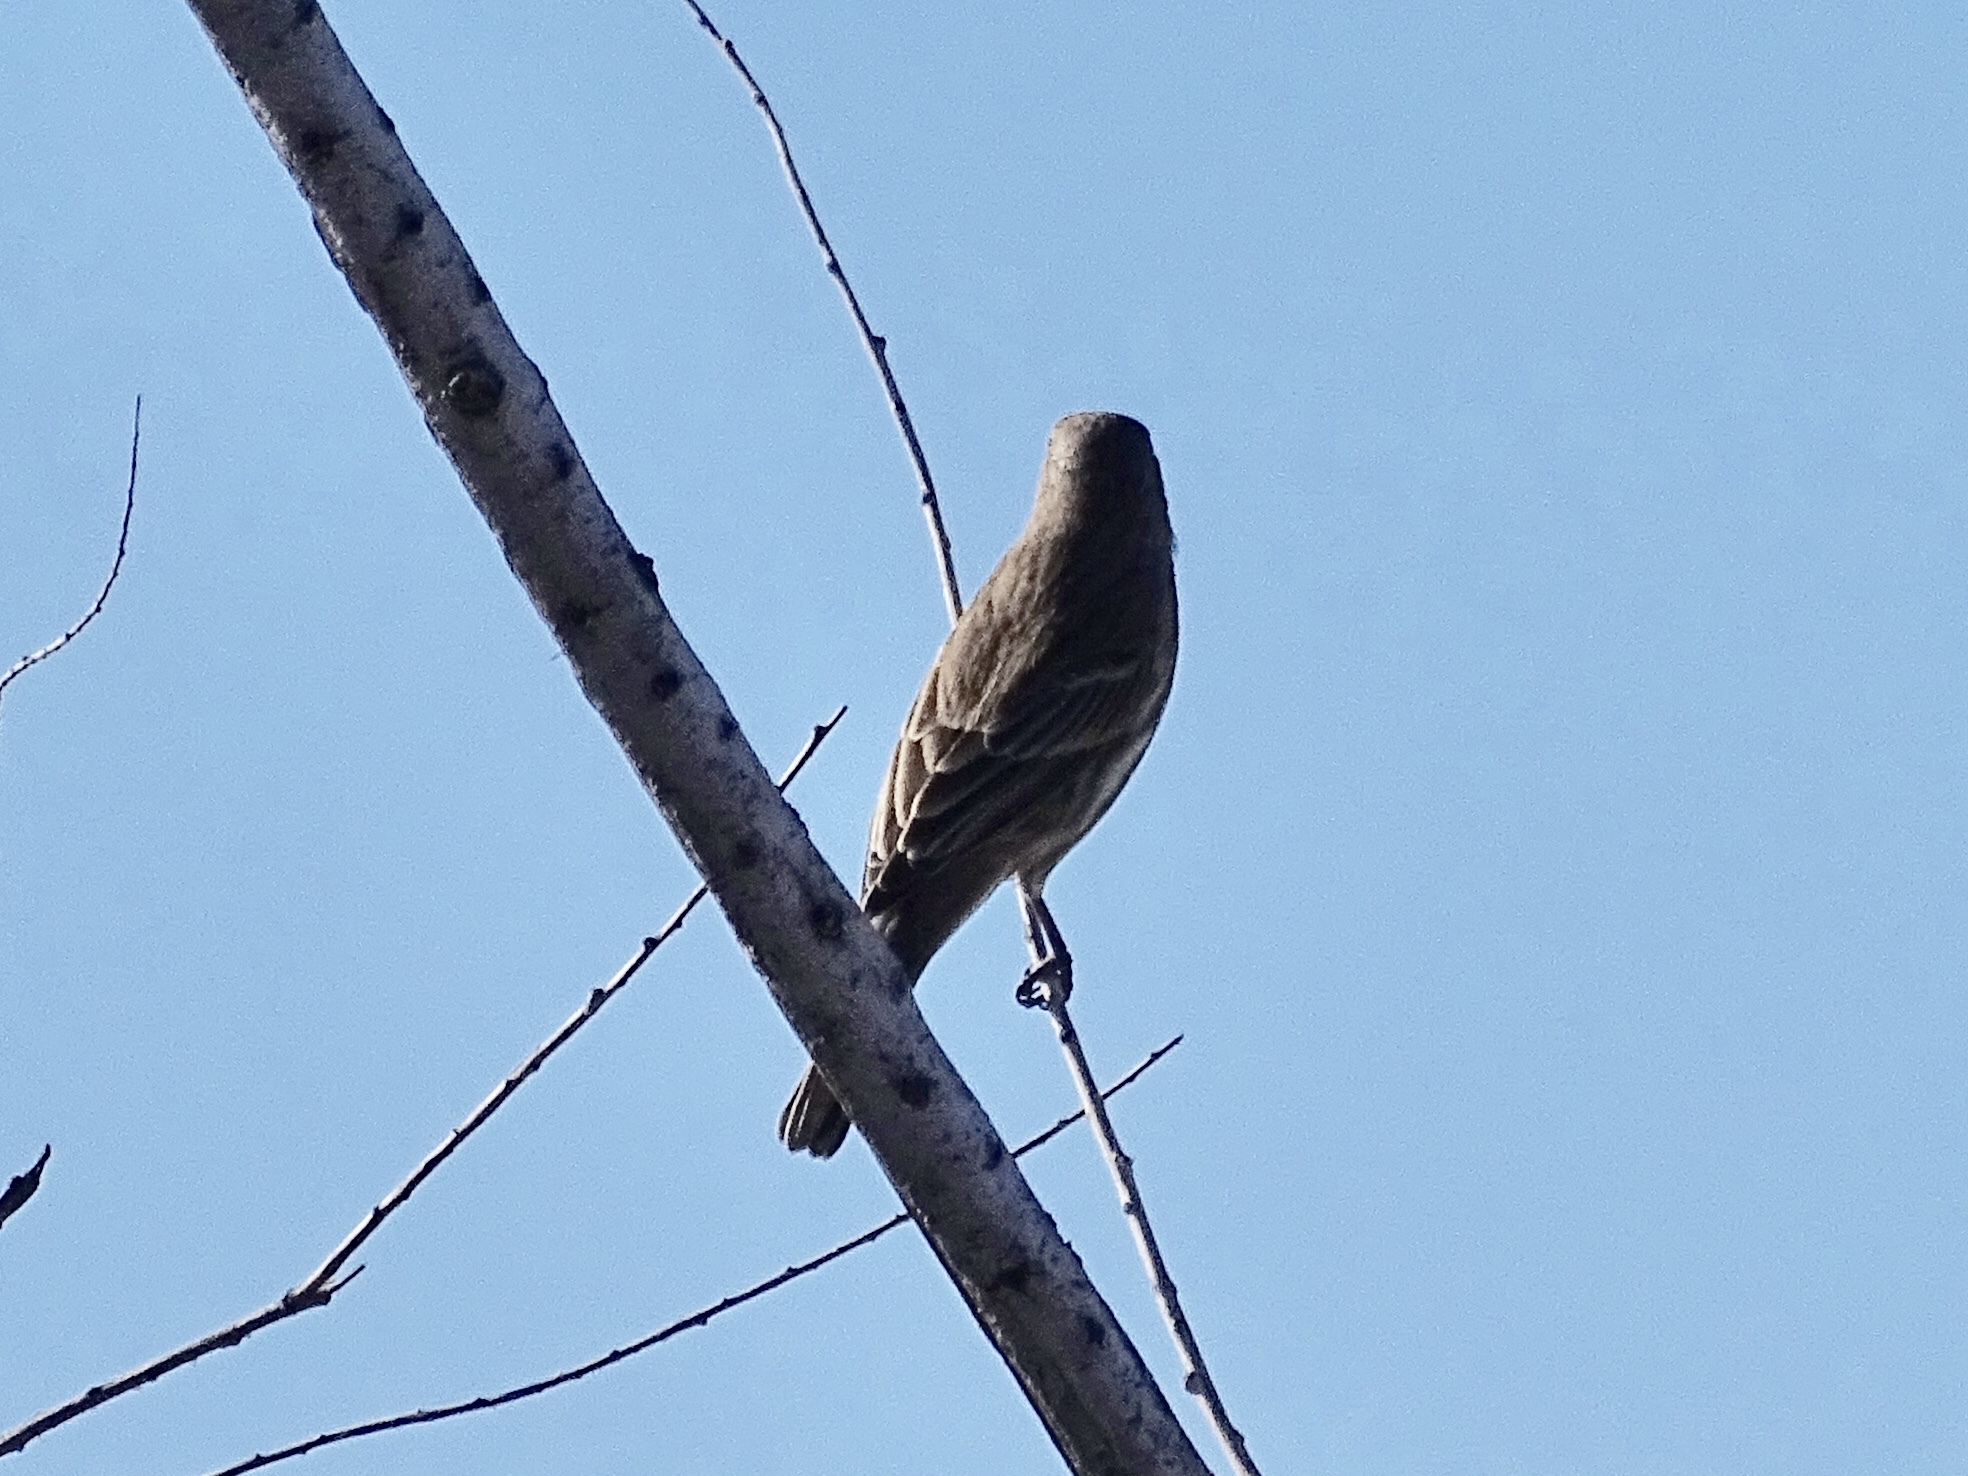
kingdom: Animalia
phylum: Chordata
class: Aves
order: Passeriformes
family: Fringillidae
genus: Haemorhous
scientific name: Haemorhous mexicanus
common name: House finch
